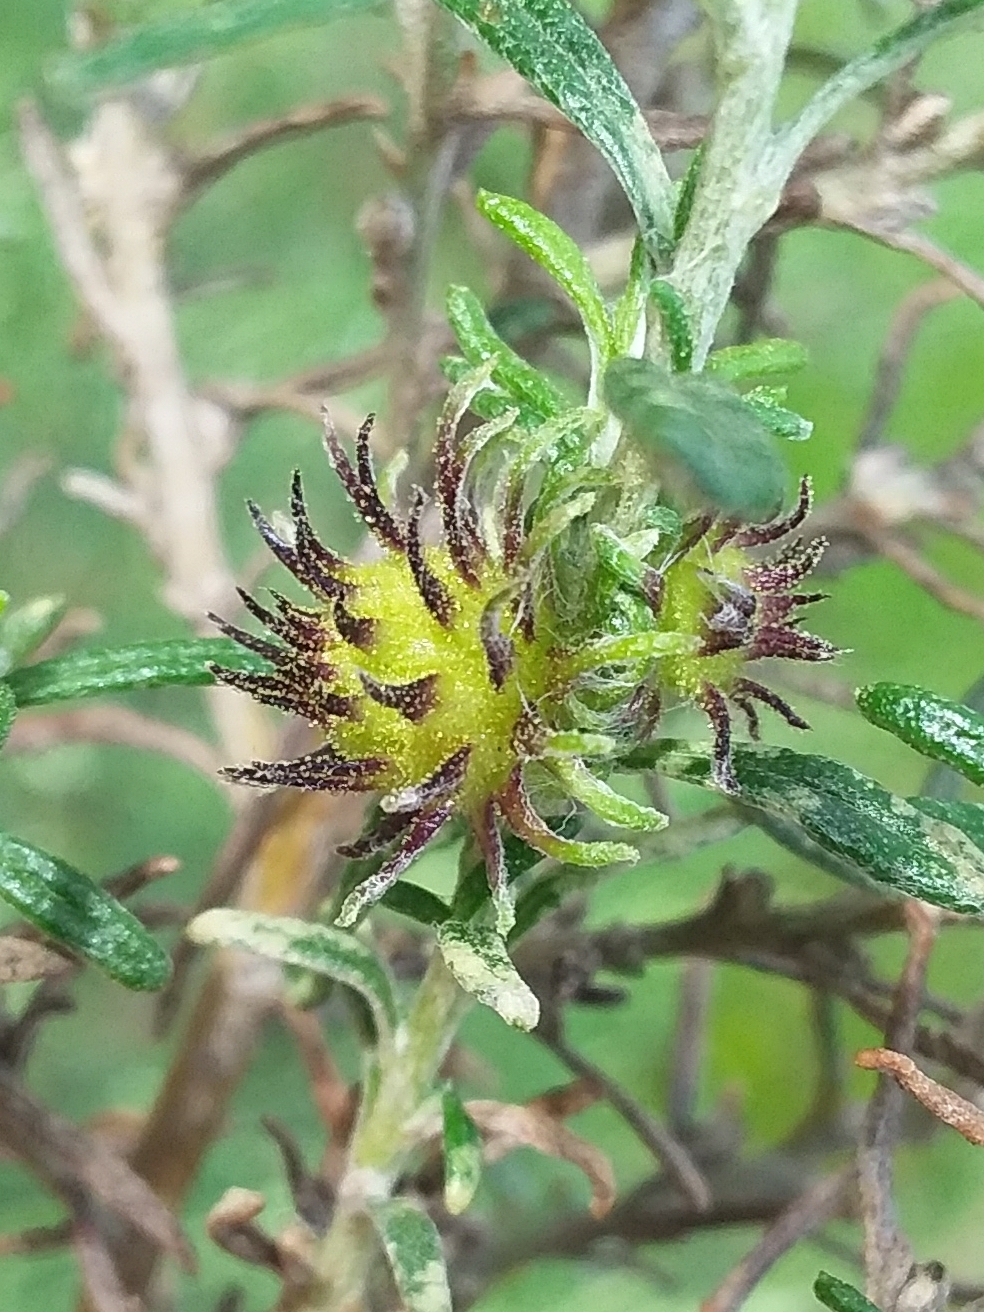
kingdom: Animalia
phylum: Arthropoda
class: Insecta
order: Diptera
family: Cecidomyiidae
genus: Trigonomyia
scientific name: Trigonomyia ananas
